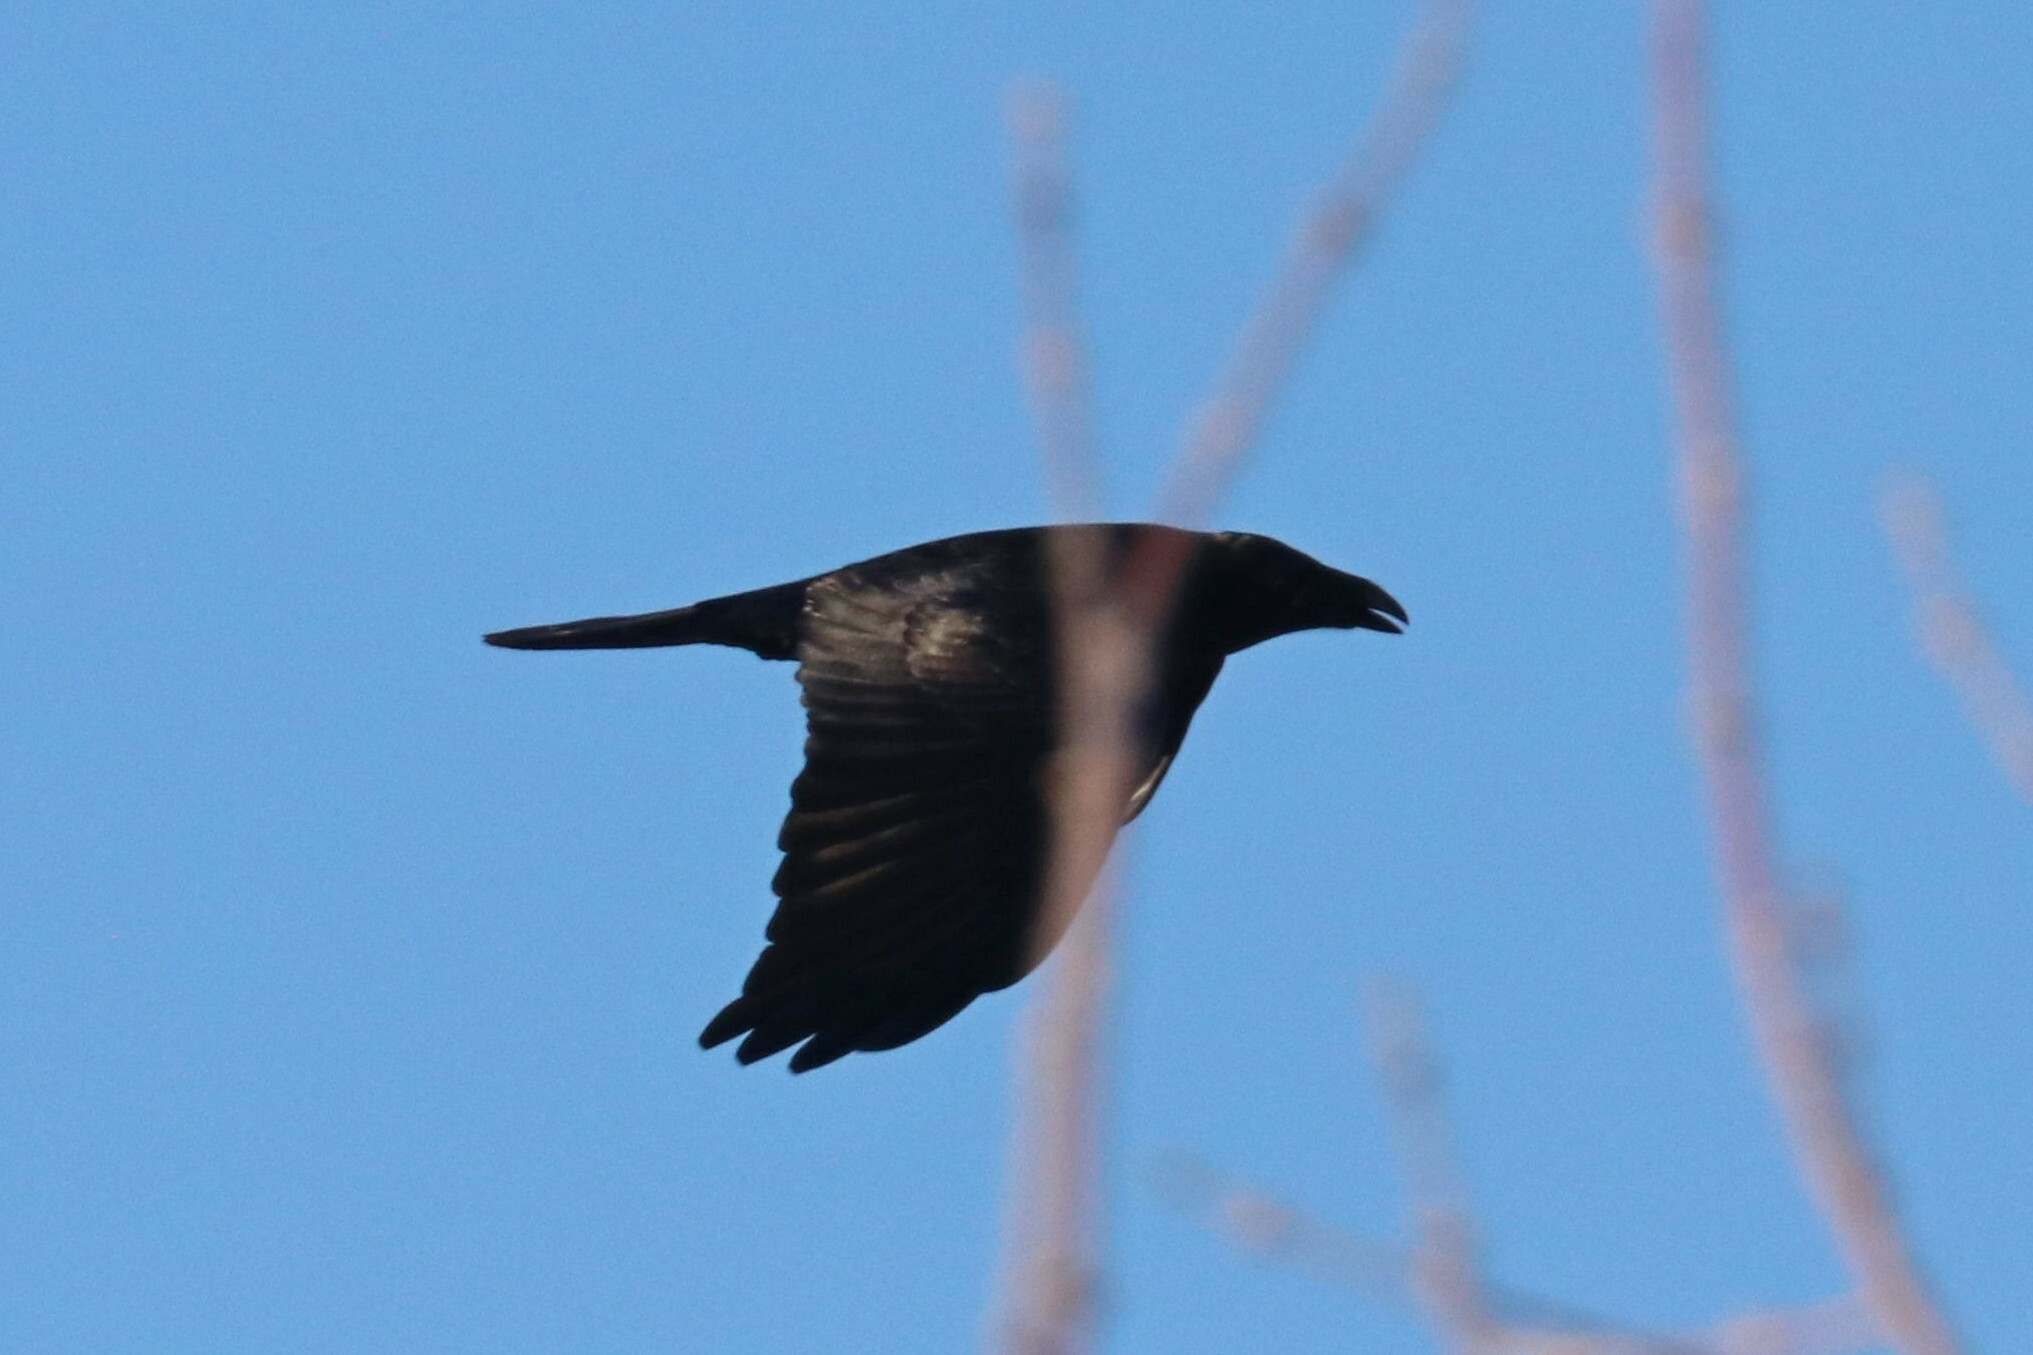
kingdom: Animalia
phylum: Chordata
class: Aves
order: Passeriformes
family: Corvidae
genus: Corvus
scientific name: Corvus corax
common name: Common raven
